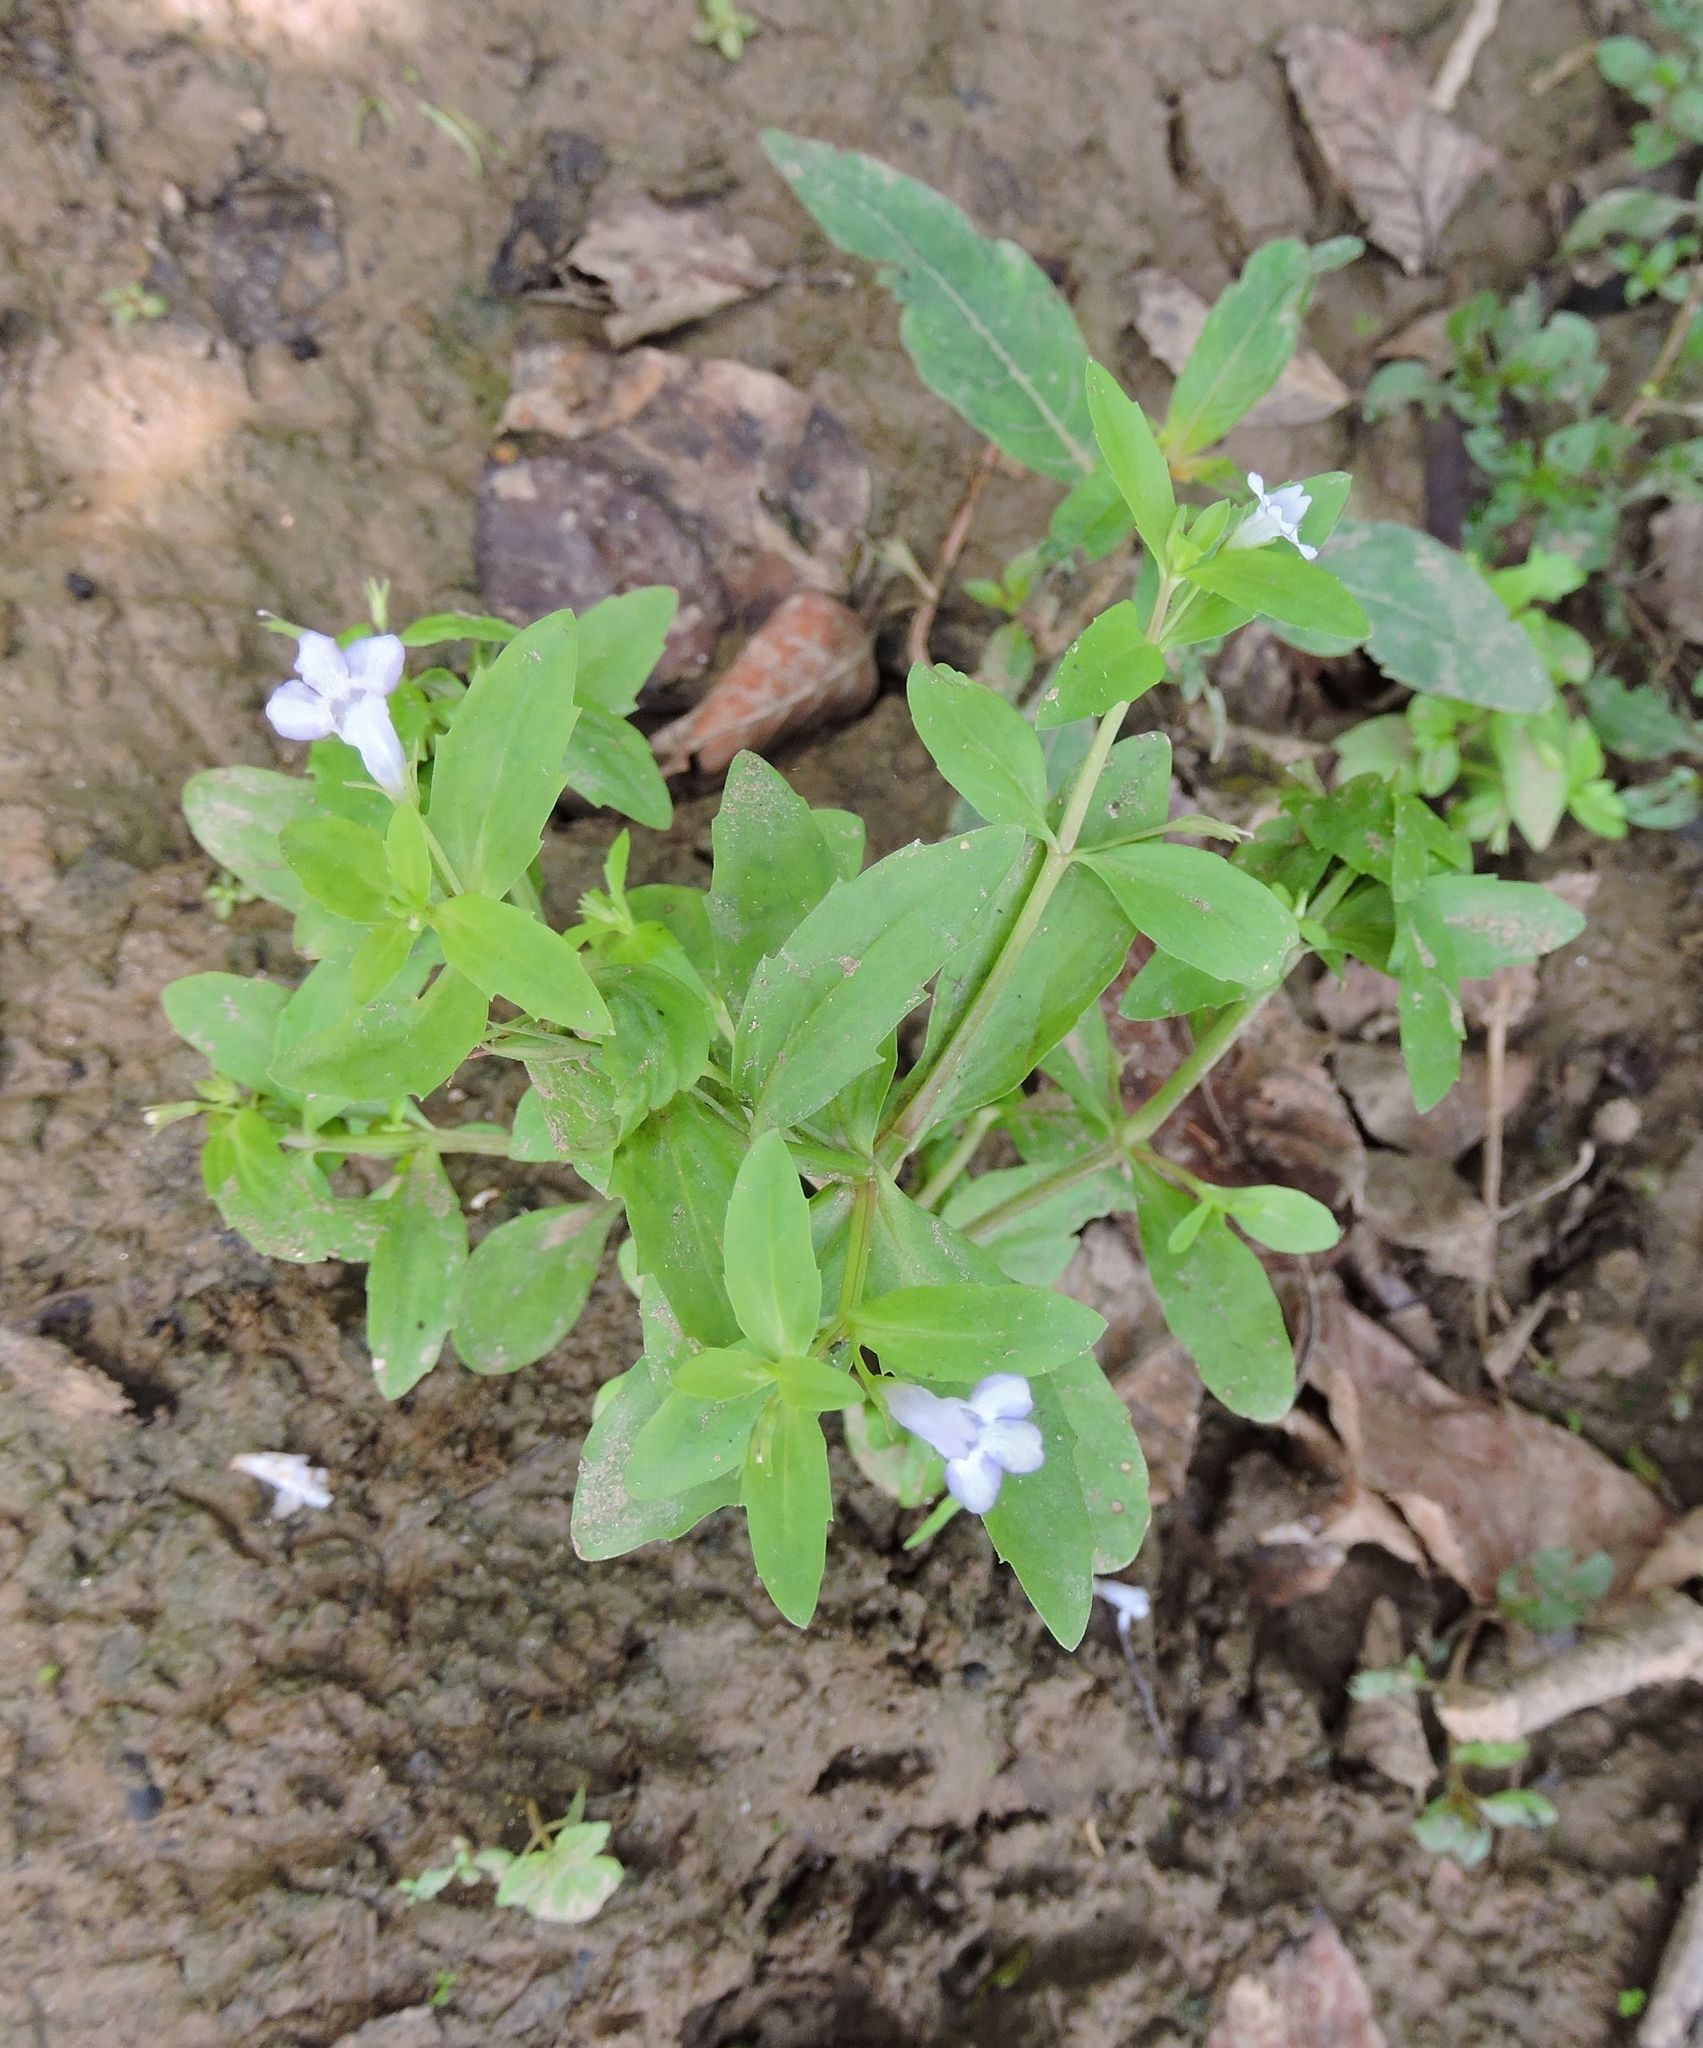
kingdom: Plantae
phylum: Tracheophyta
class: Magnoliopsida
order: Lamiales
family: Phrymaceae
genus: Mimulus
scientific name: Mimulus ringens
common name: Allegheny monkeyflower
